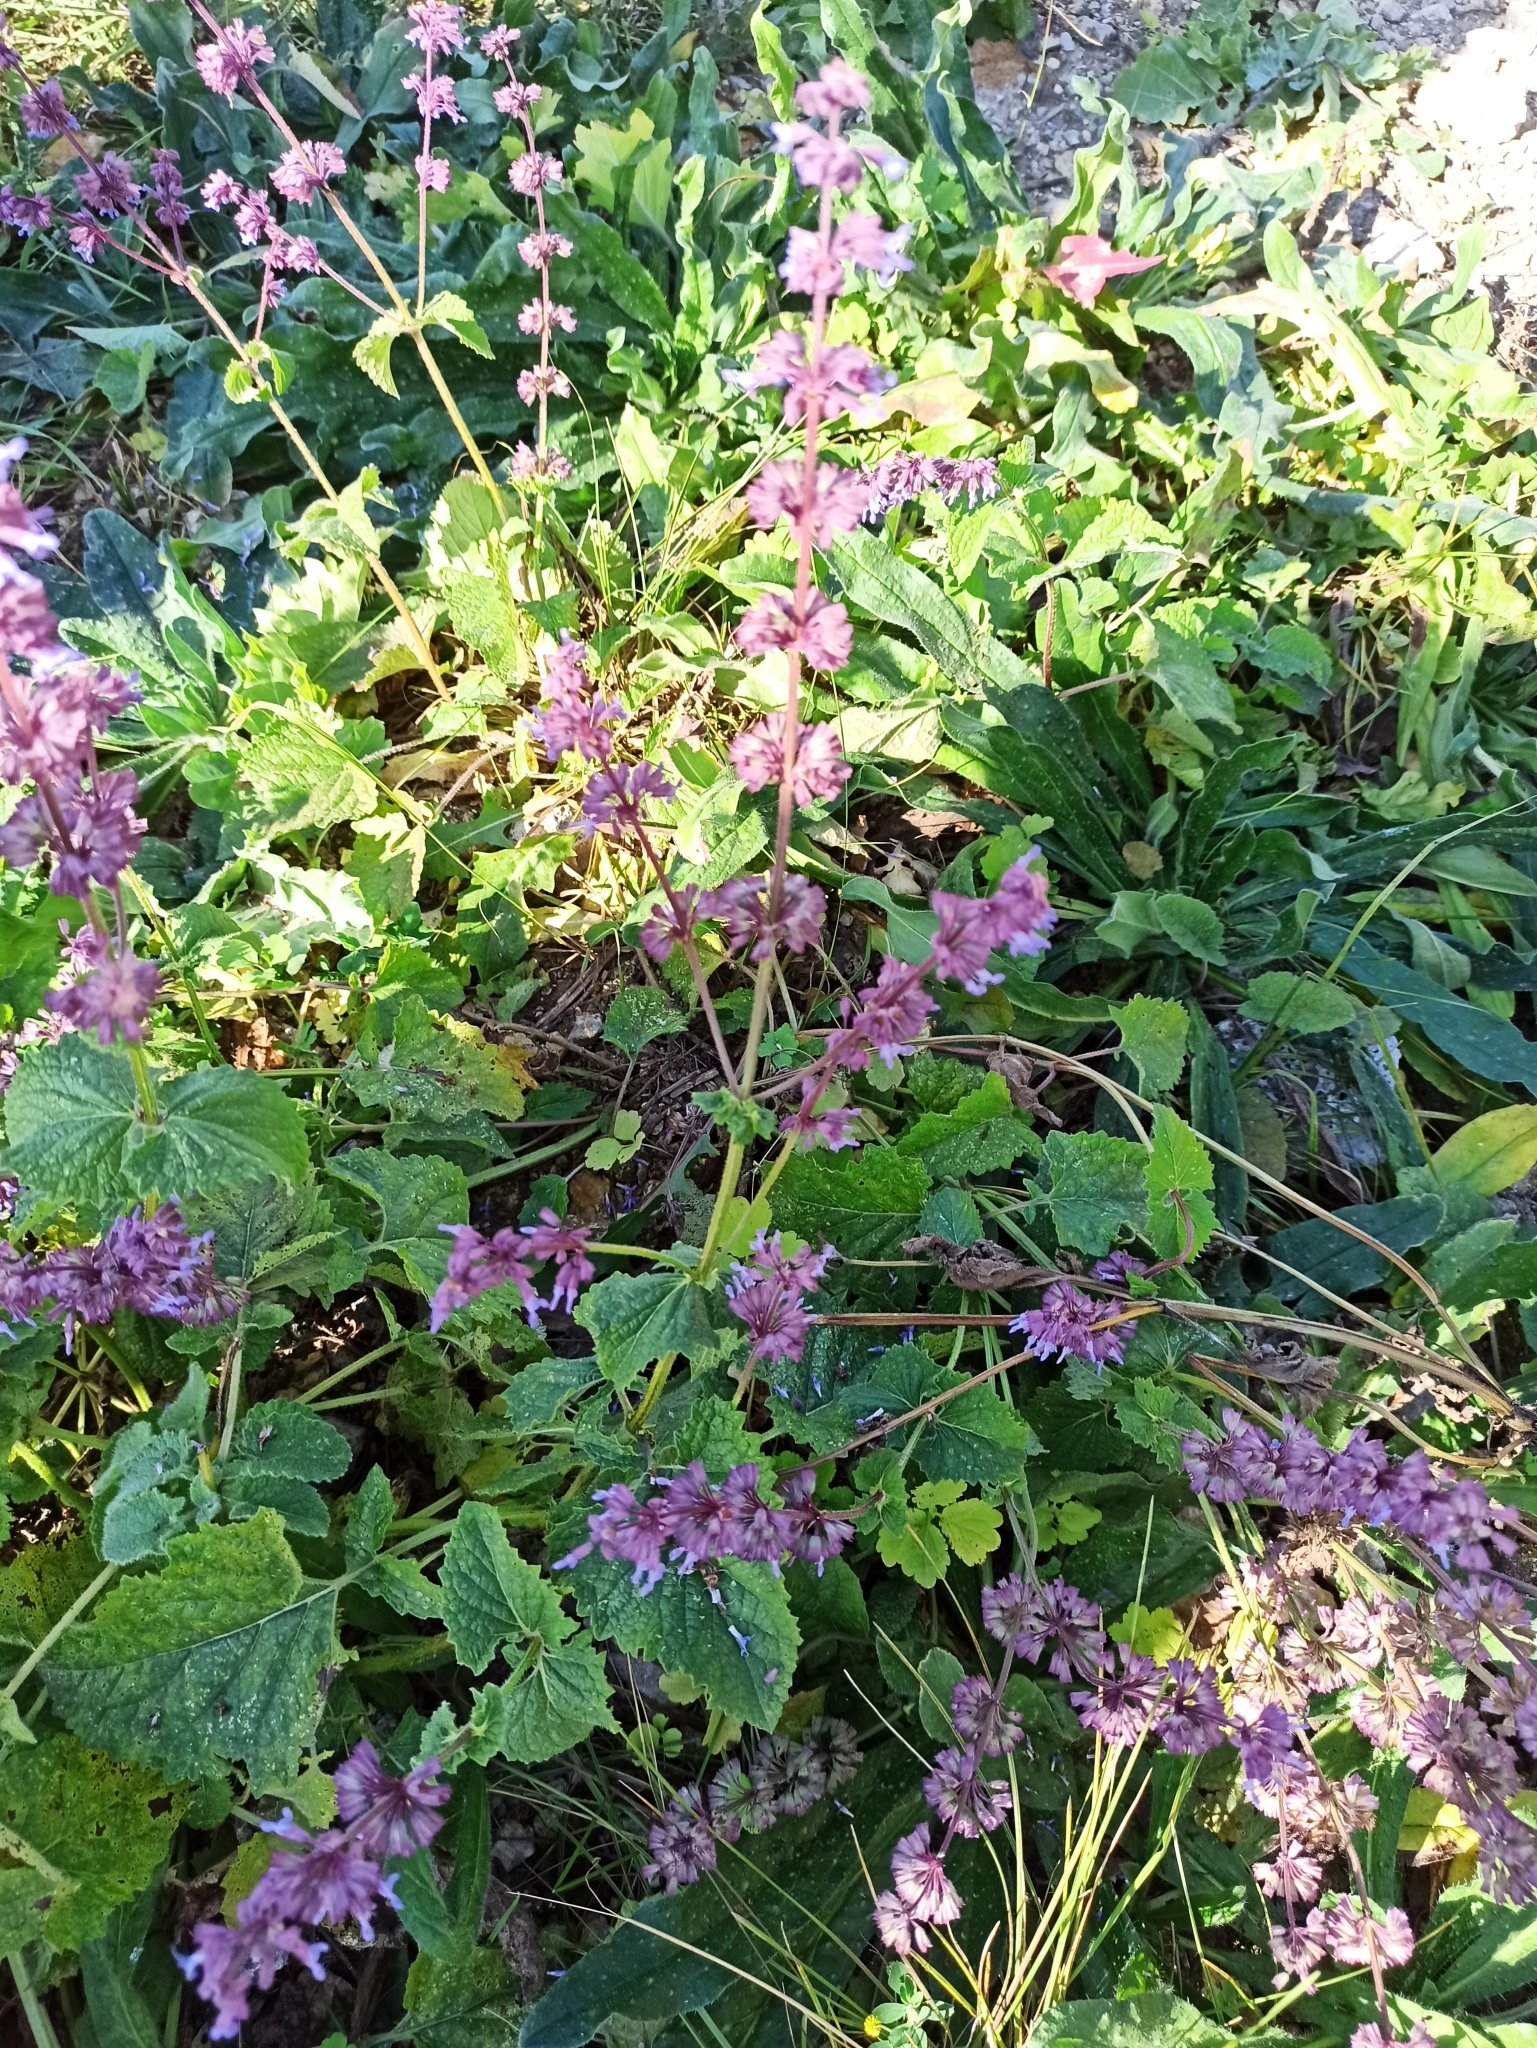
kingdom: Plantae
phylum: Tracheophyta
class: Magnoliopsida
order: Lamiales
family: Lamiaceae
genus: Salvia
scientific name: Salvia verticillata
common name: Whorled clary
